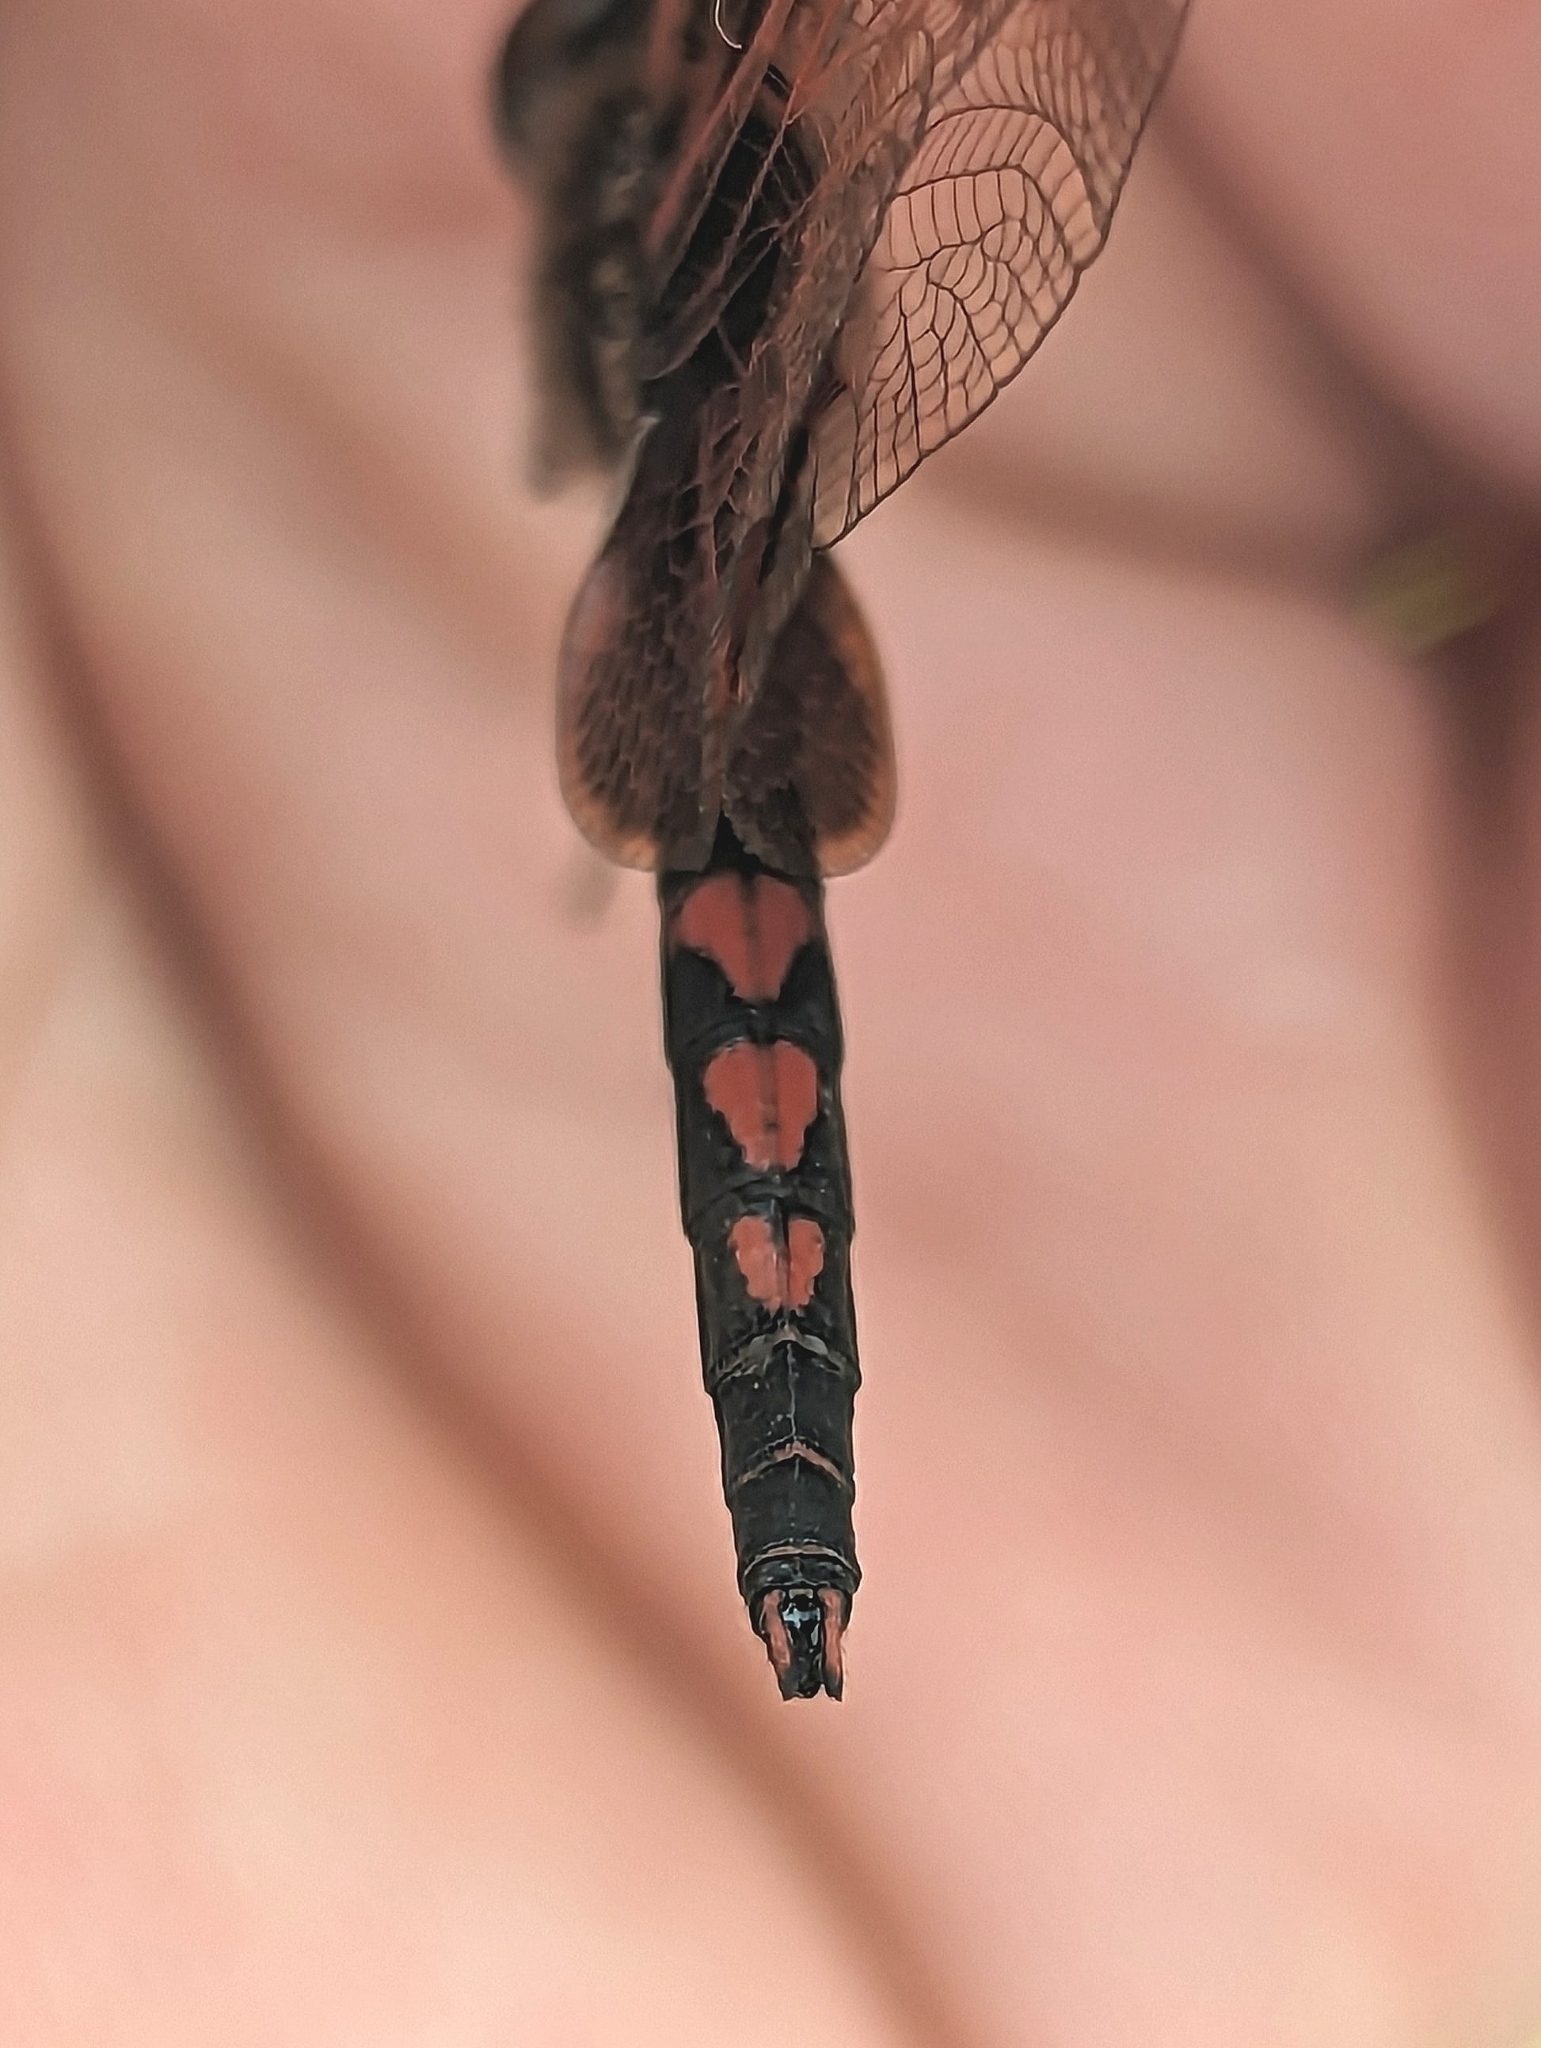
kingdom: Animalia
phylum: Arthropoda
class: Insecta
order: Odonata
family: Libellulidae
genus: Celithemis
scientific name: Celithemis elisa
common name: Calico pennant
